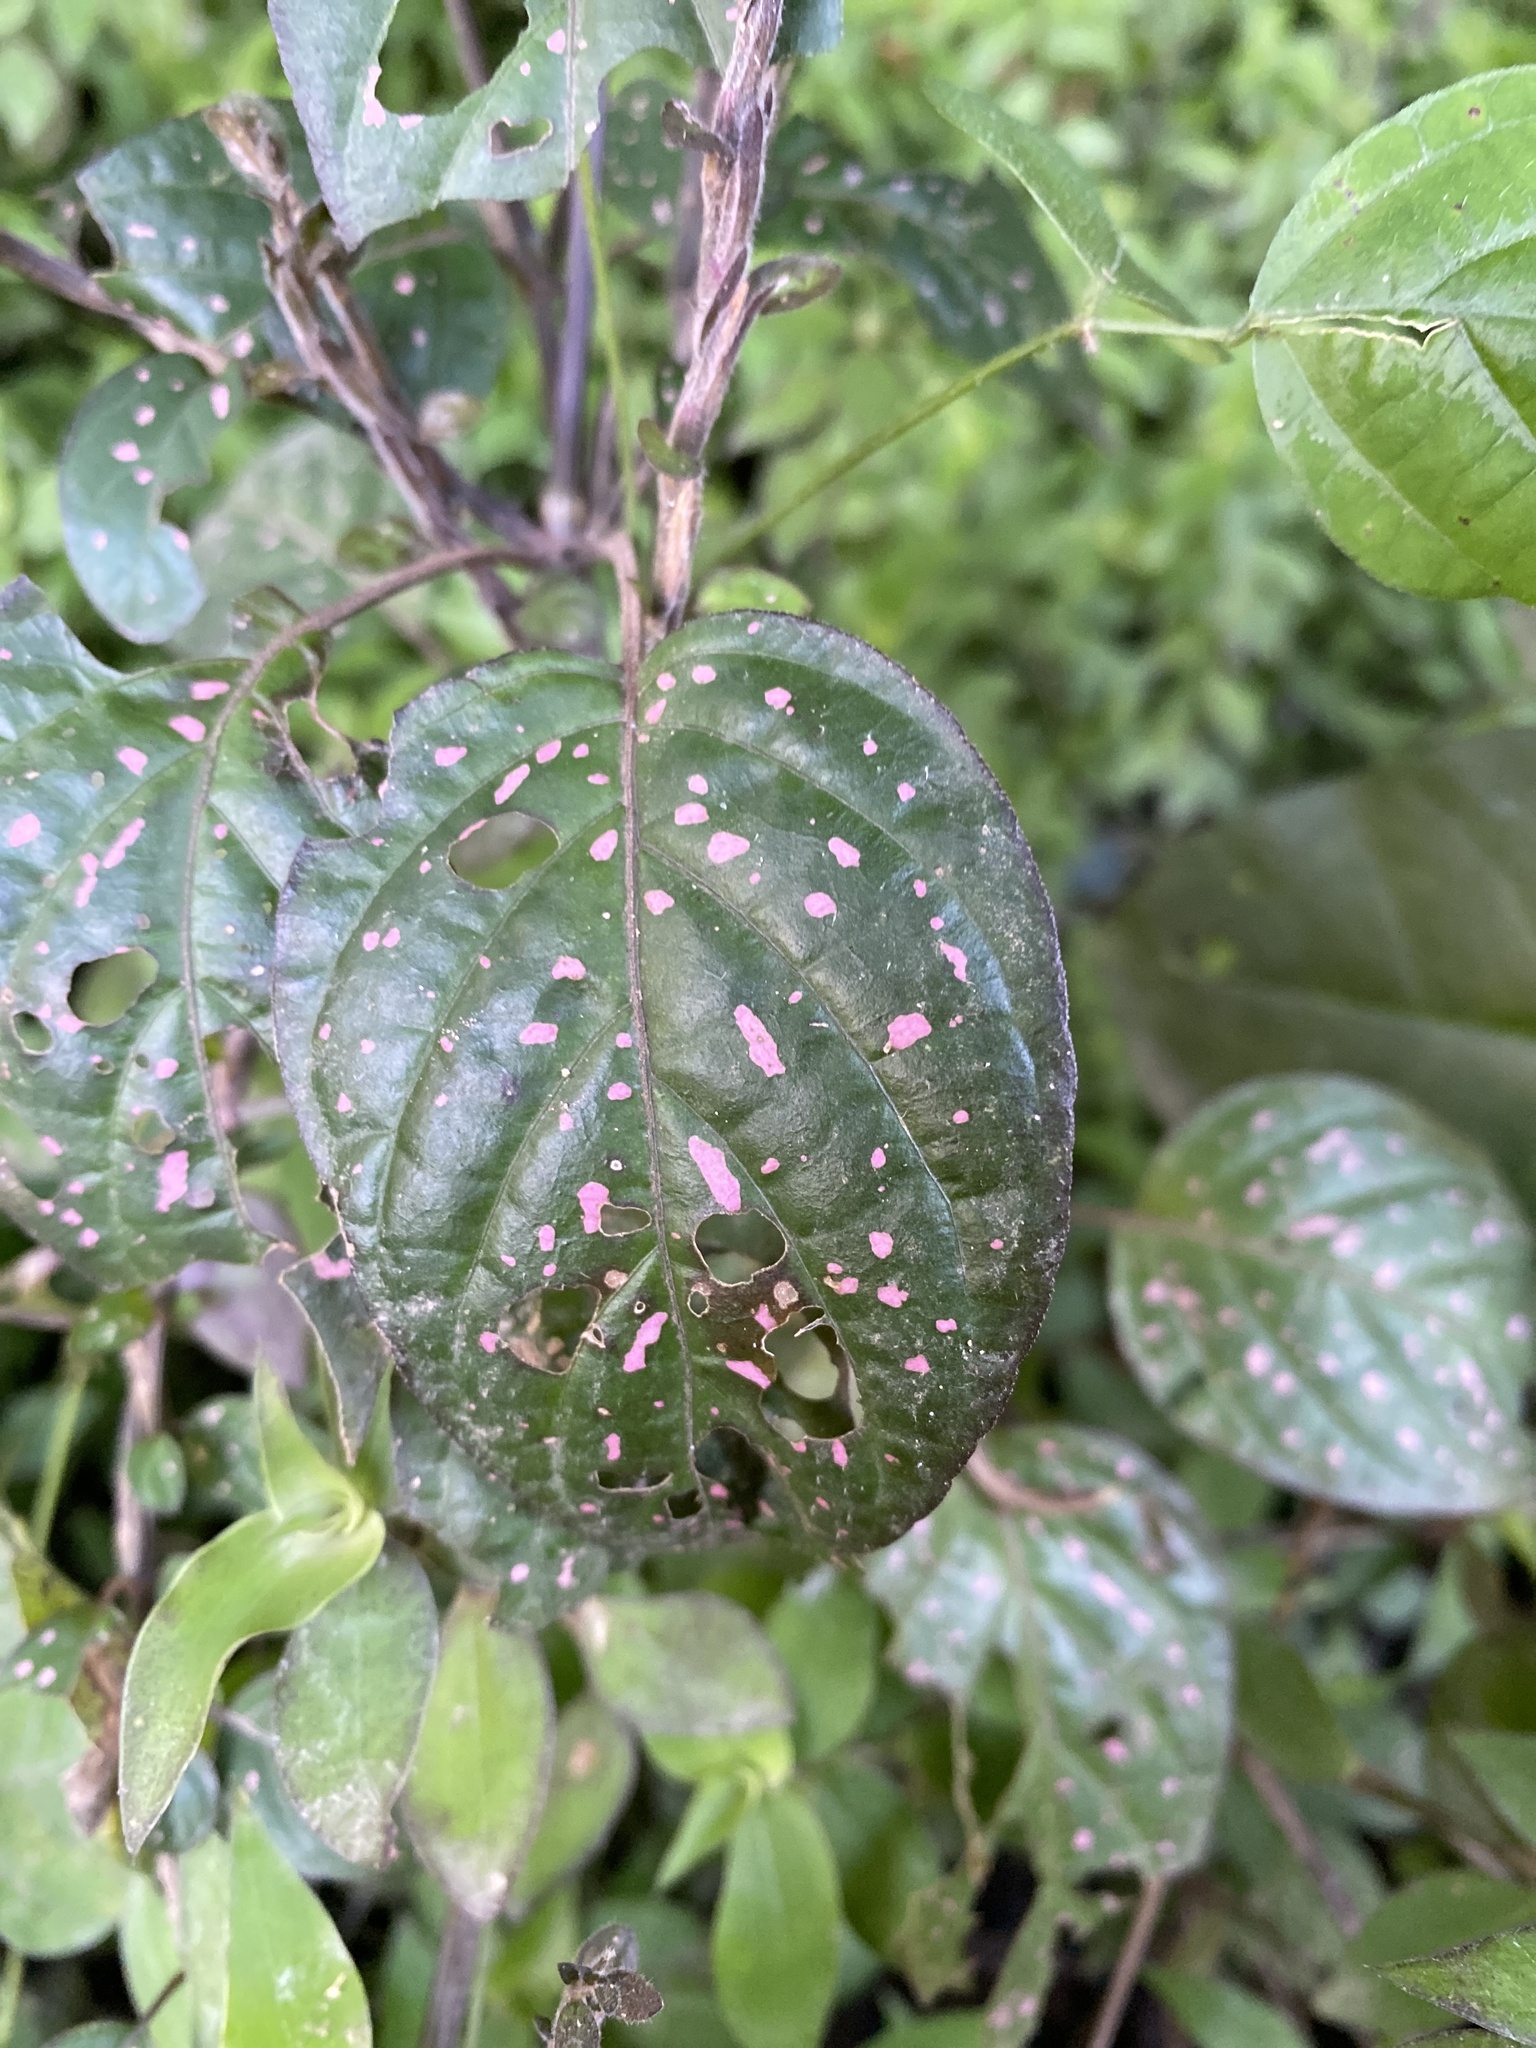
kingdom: Plantae
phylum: Tracheophyta
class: Magnoliopsida
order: Lamiales
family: Acanthaceae
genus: Hypoestes
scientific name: Hypoestes phyllostachya
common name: Polkadot-plant
